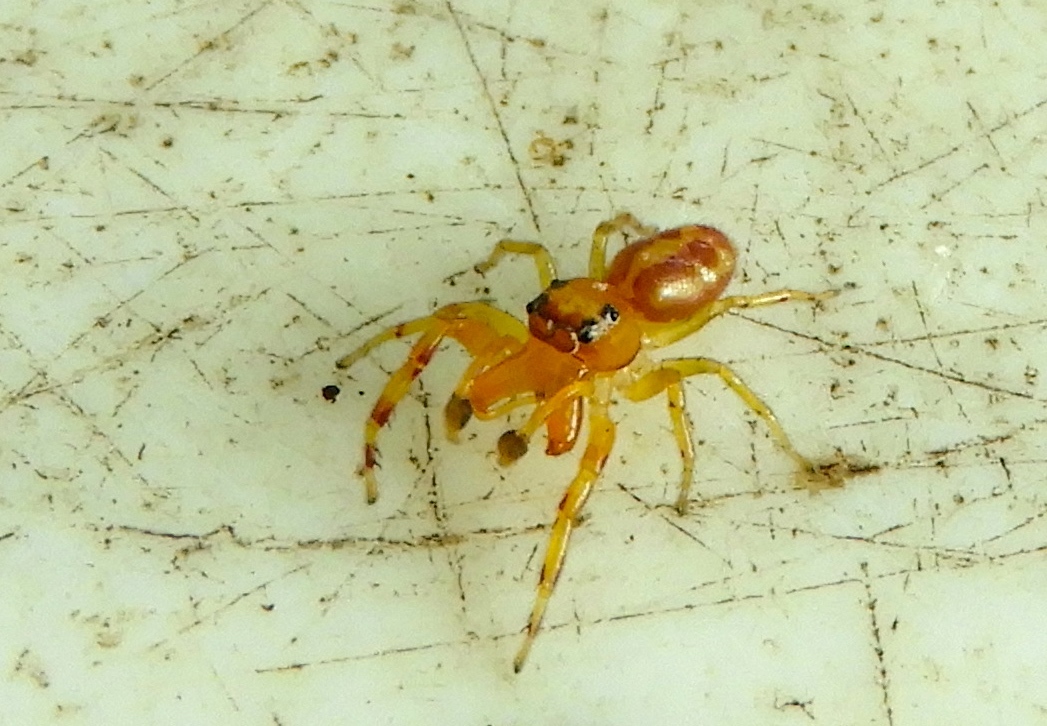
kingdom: Animalia
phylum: Arthropoda
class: Arachnida
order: Araneae
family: Salticidae
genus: Gypogyna
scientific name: Gypogyna mexicana
